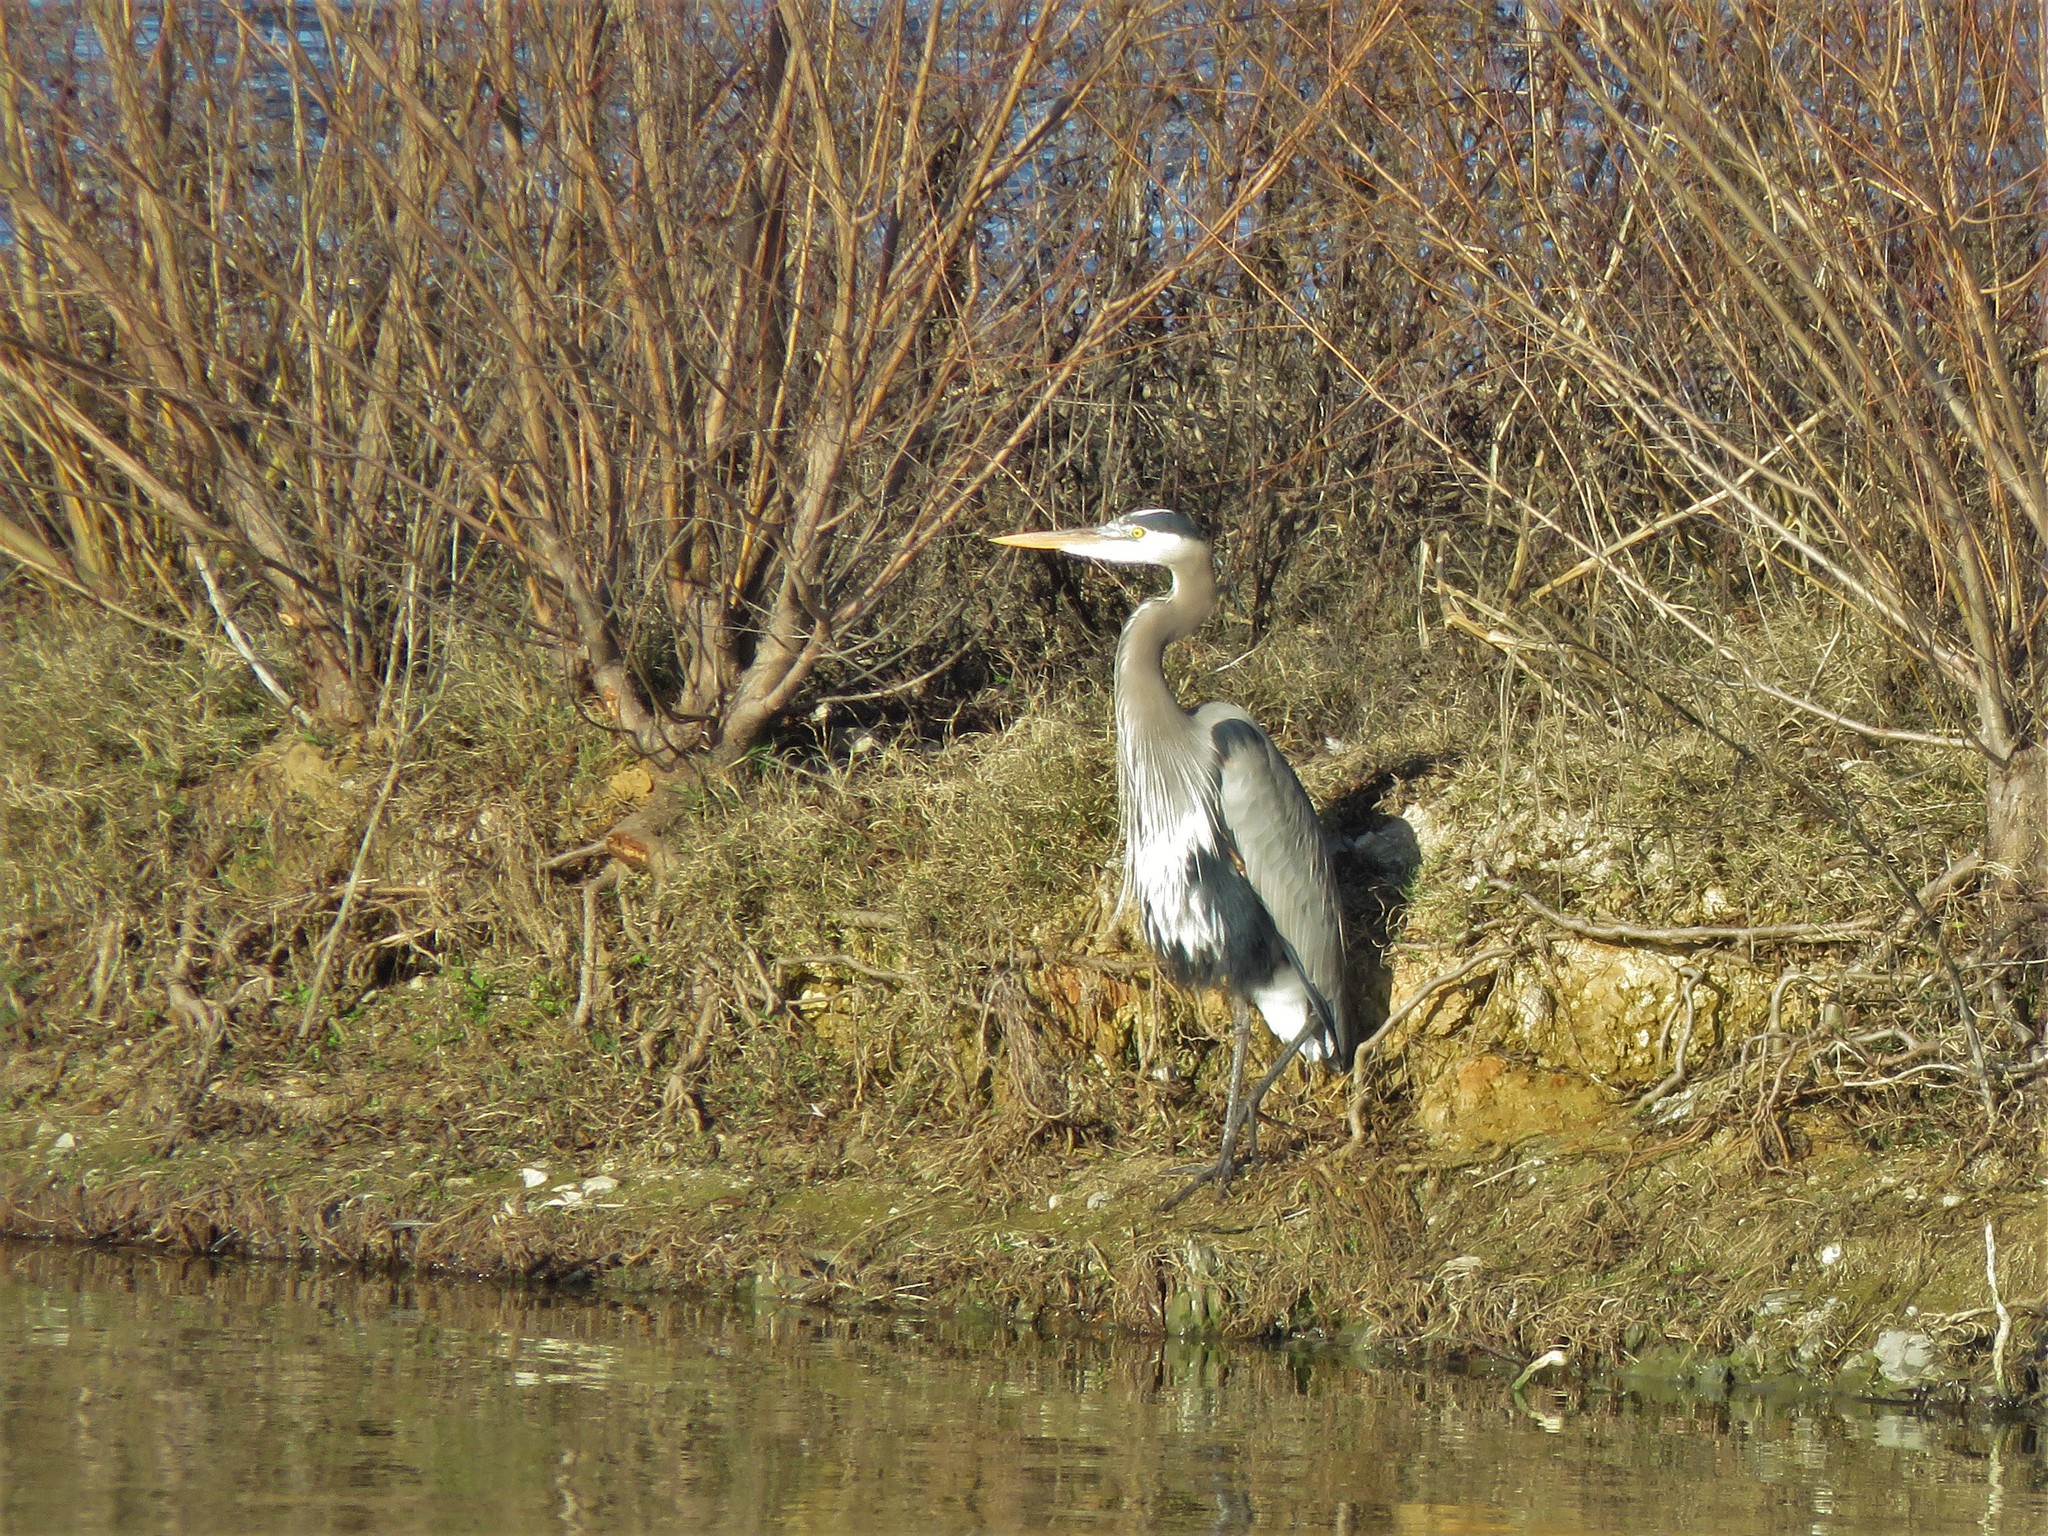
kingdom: Animalia
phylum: Chordata
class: Aves
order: Pelecaniformes
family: Ardeidae
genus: Ardea
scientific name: Ardea herodias
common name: Great blue heron
